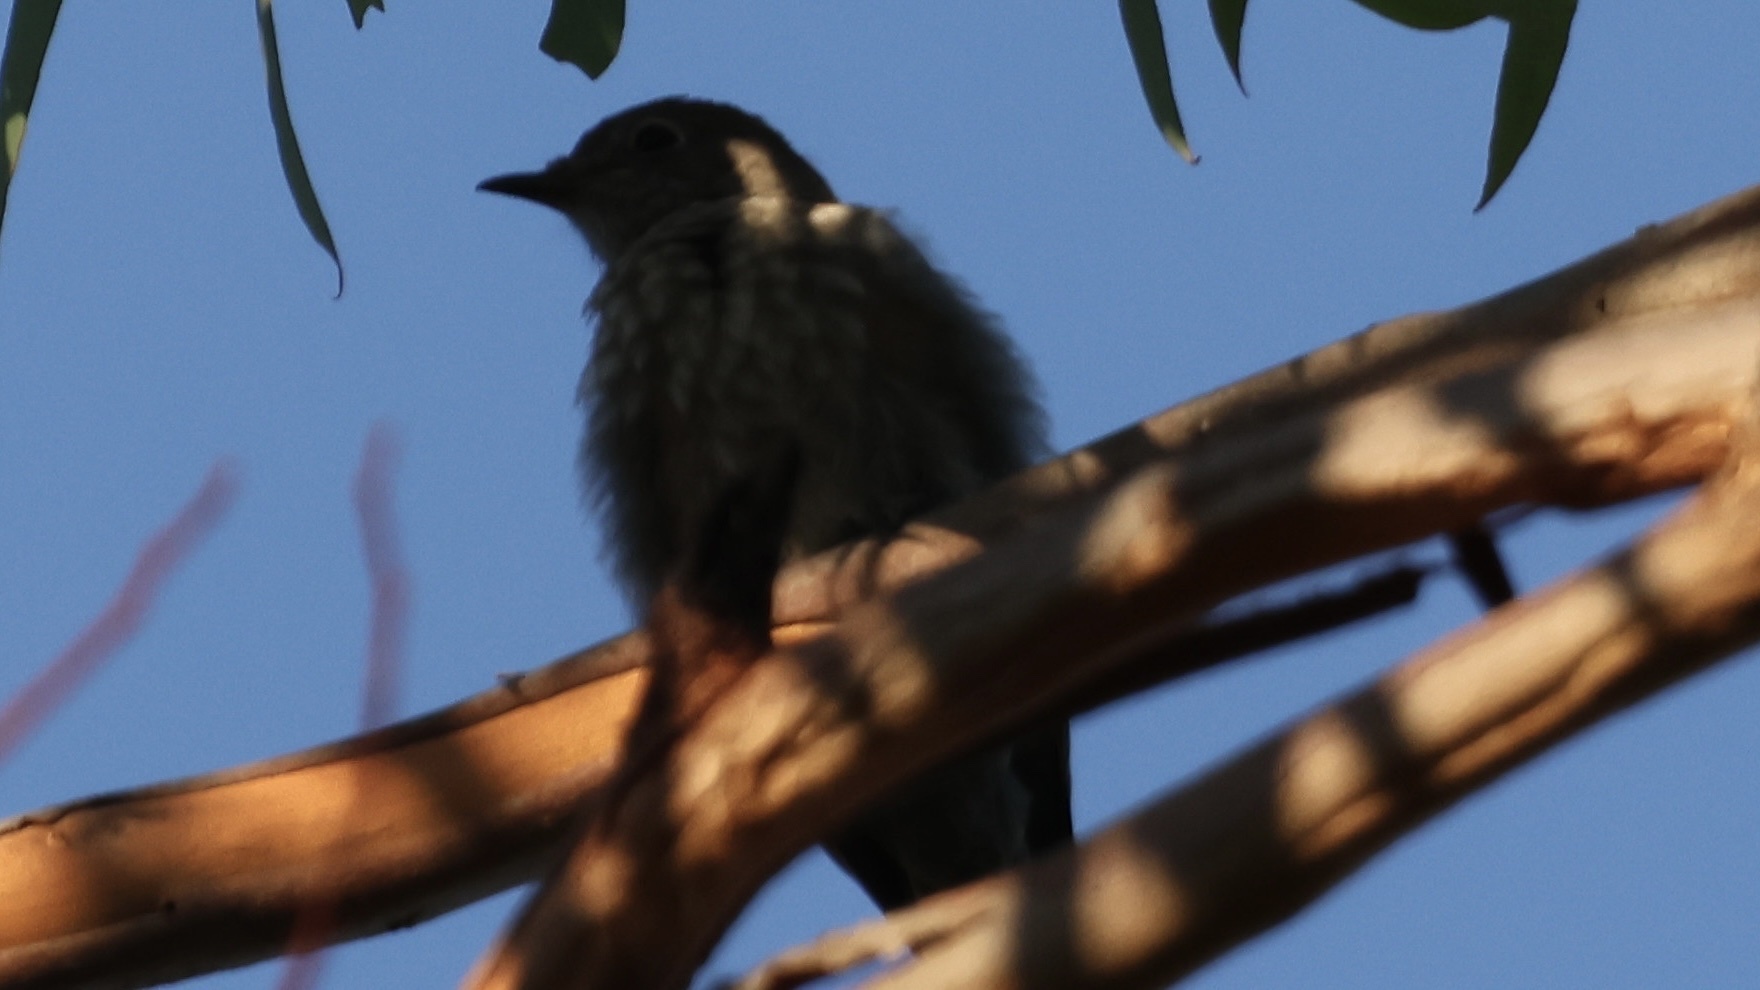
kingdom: Animalia
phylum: Chordata
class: Aves
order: Passeriformes
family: Turdidae
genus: Sialia
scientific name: Sialia mexicana
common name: Western bluebird
